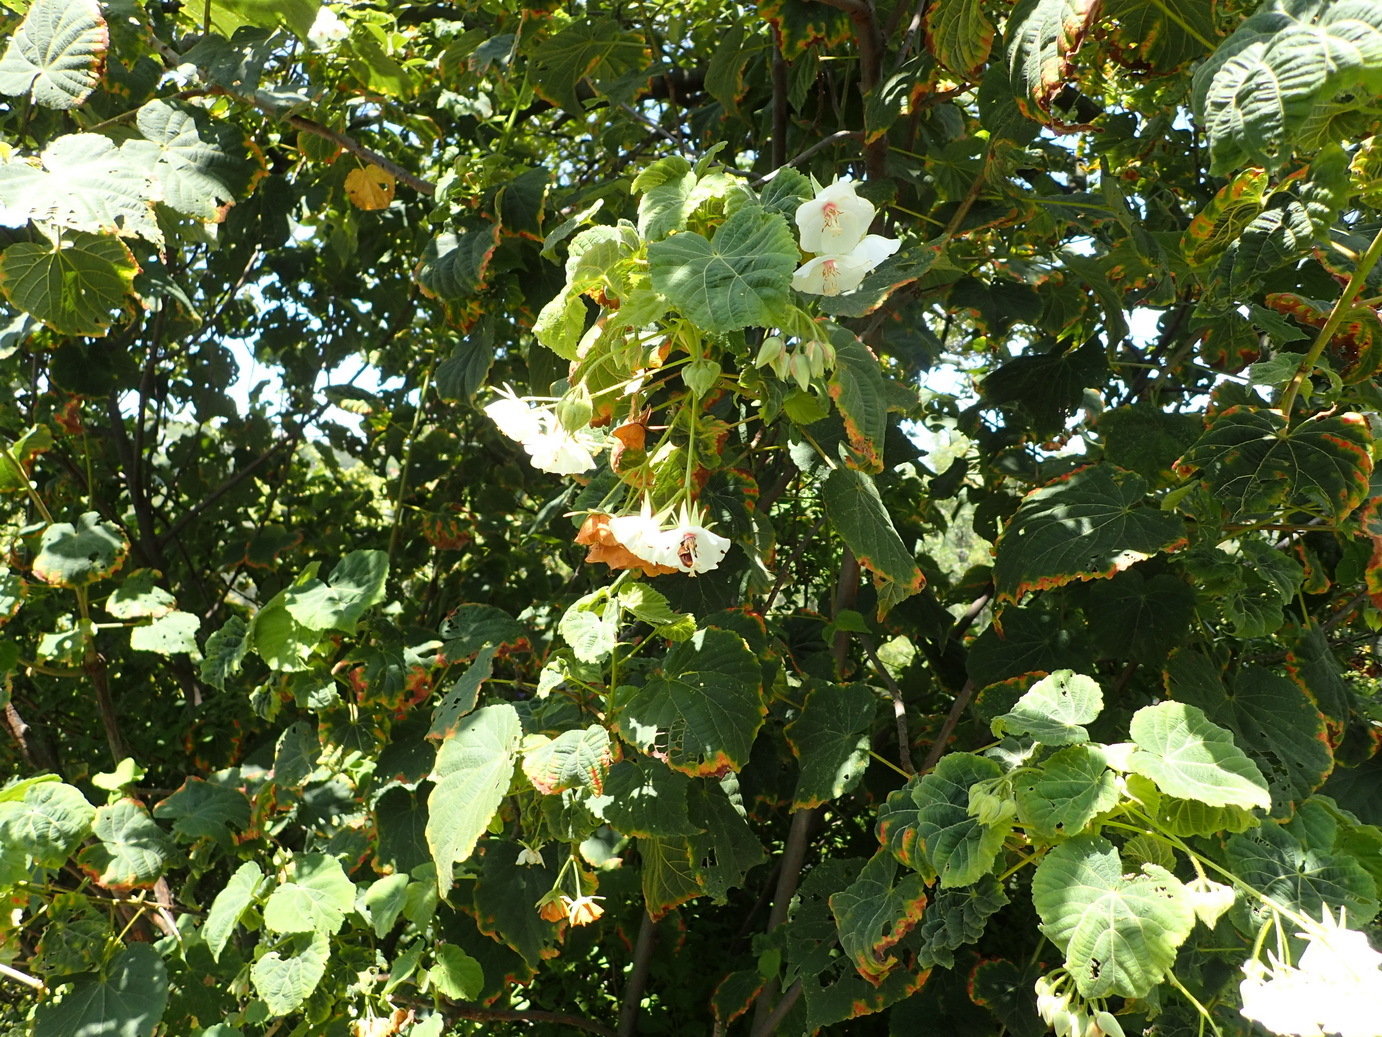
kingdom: Plantae
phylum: Tracheophyta
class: Magnoliopsida
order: Malvales
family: Malvaceae
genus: Dombeya
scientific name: Dombeya cymosa
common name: Hairless dombeya
